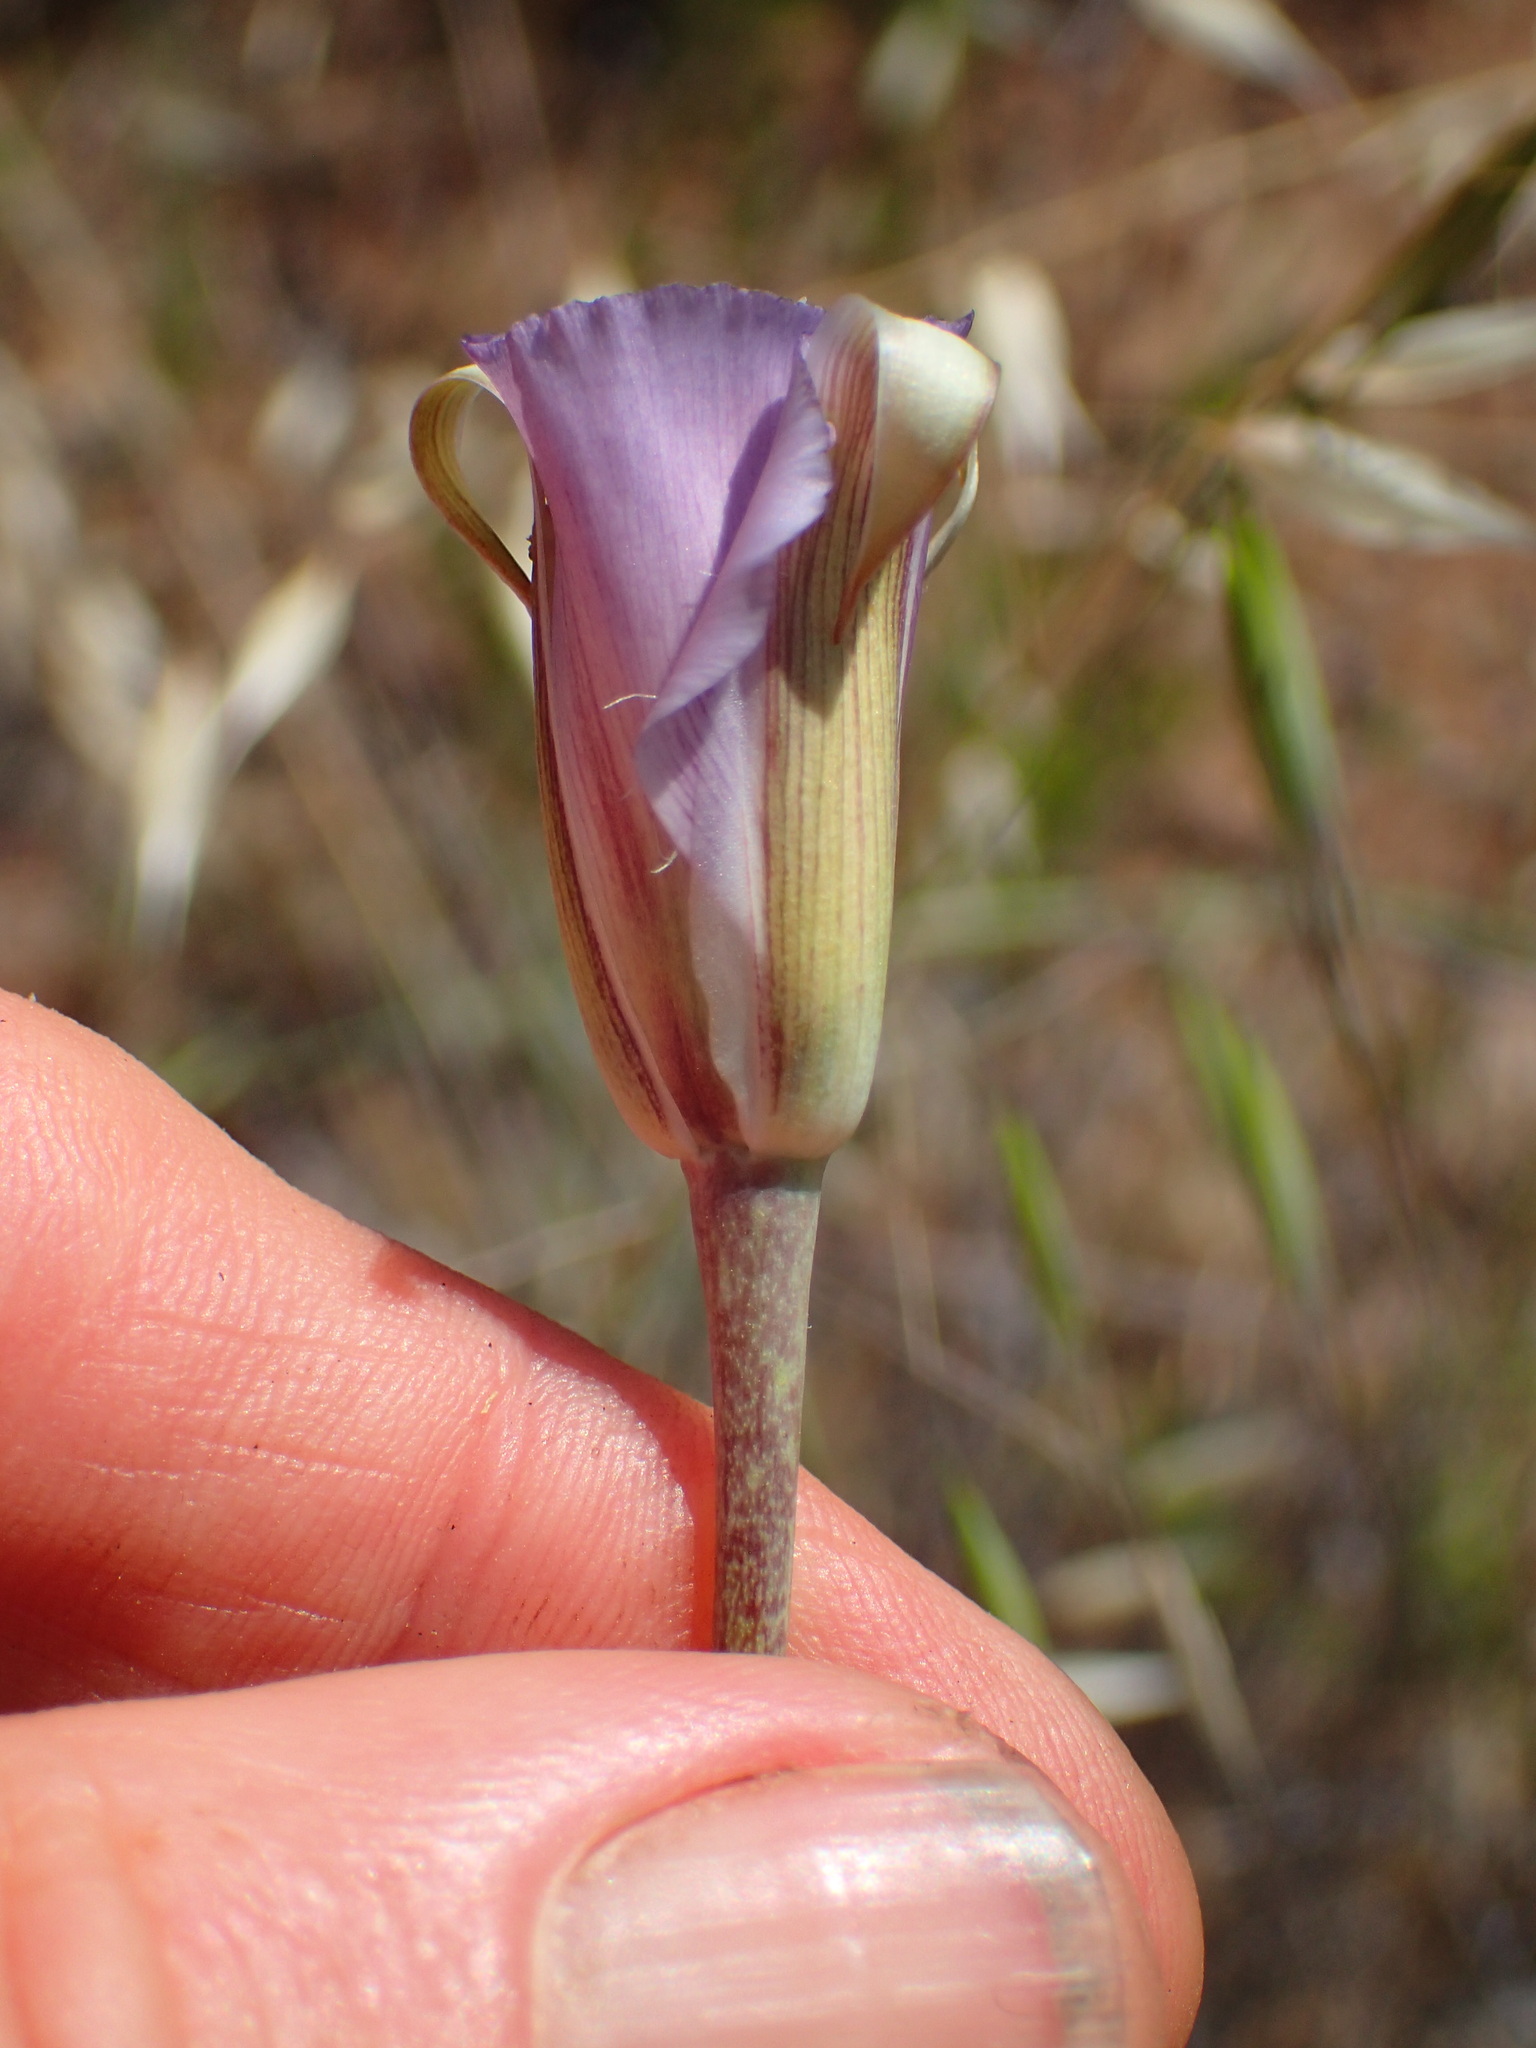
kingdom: Plantae
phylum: Tracheophyta
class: Liliopsida
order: Liliales
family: Liliaceae
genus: Calochortus
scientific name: Calochortus splendens
